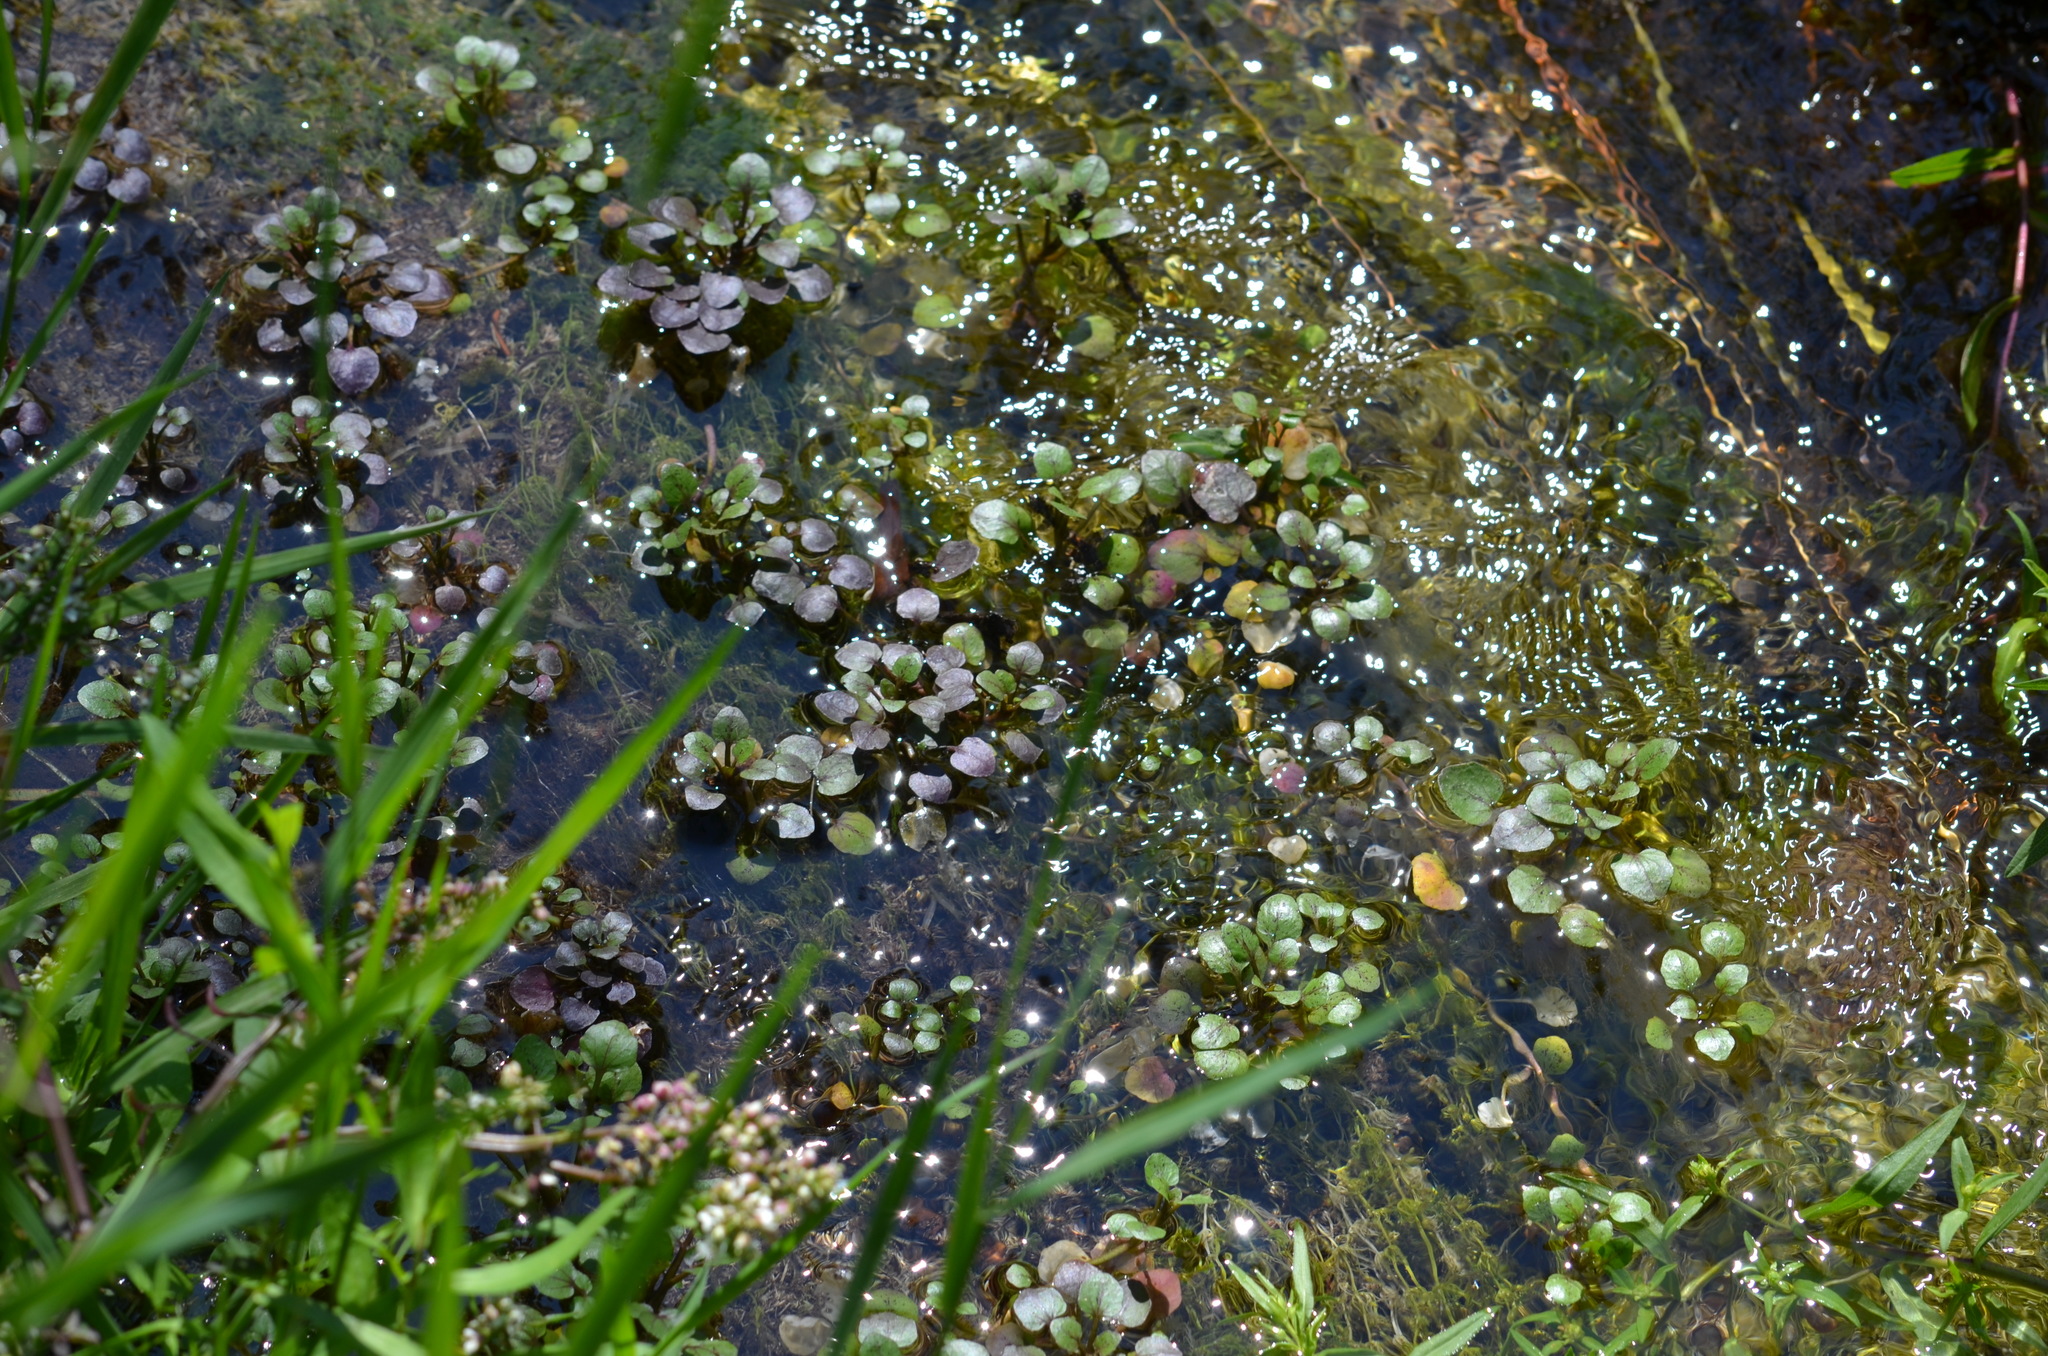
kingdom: Plantae
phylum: Tracheophyta
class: Magnoliopsida
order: Brassicales
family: Brassicaceae
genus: Nasturtium
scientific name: Nasturtium officinale
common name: Watercress
